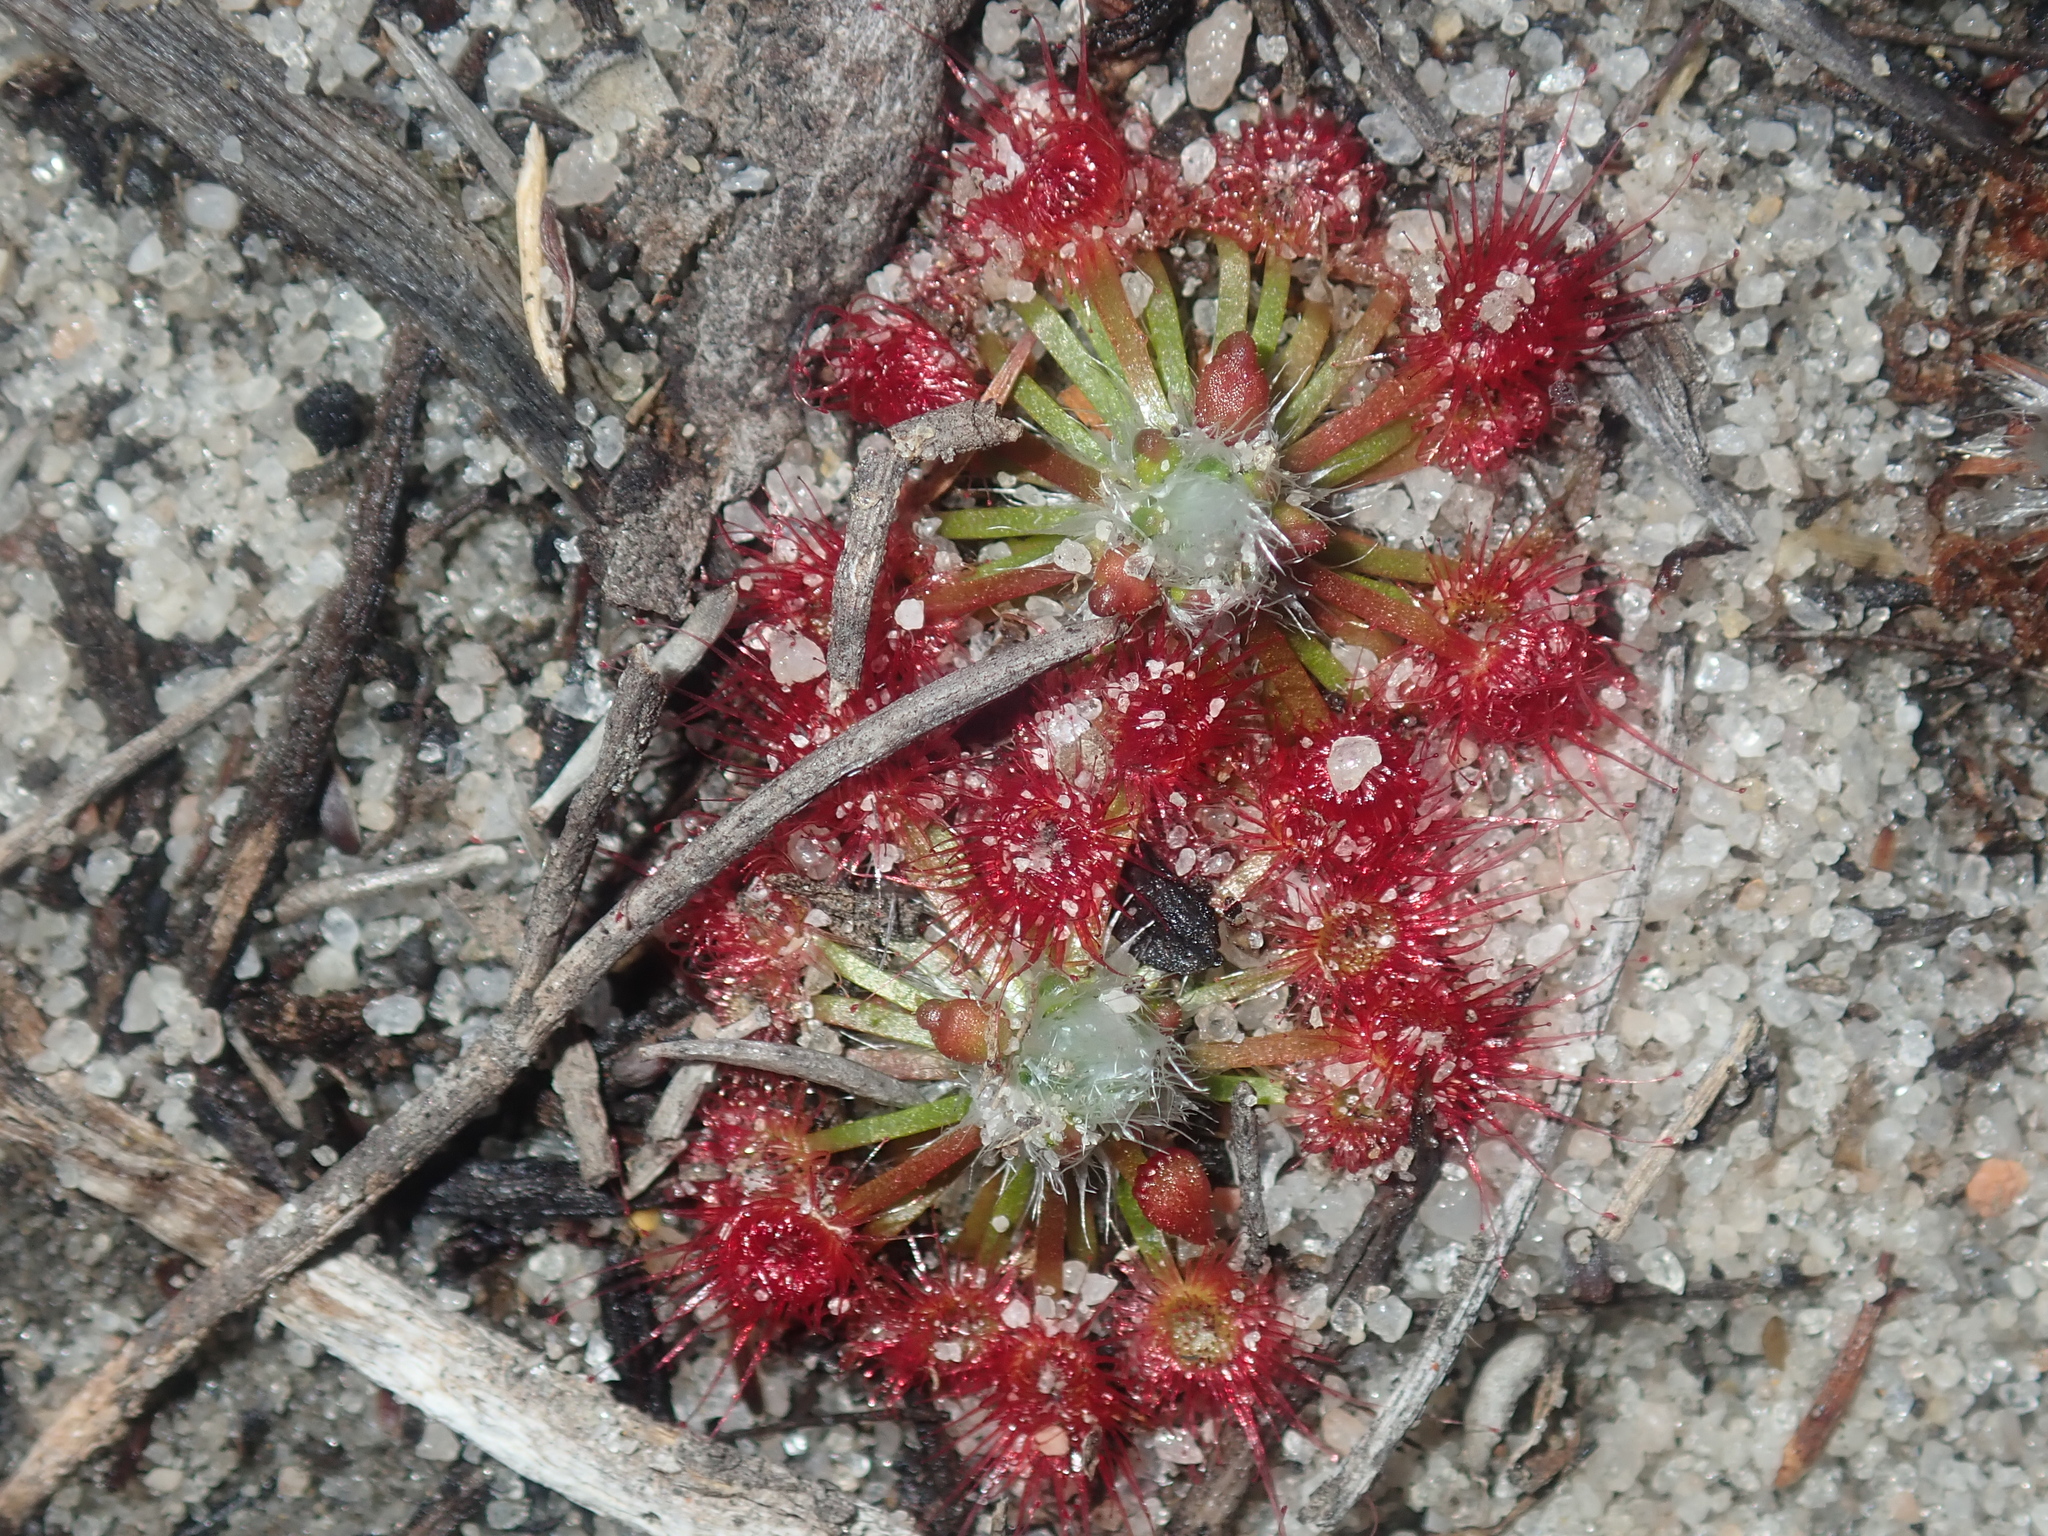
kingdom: Plantae
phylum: Tracheophyta
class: Magnoliopsida
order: Caryophyllales
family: Droseraceae
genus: Drosera
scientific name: Drosera eneabba
